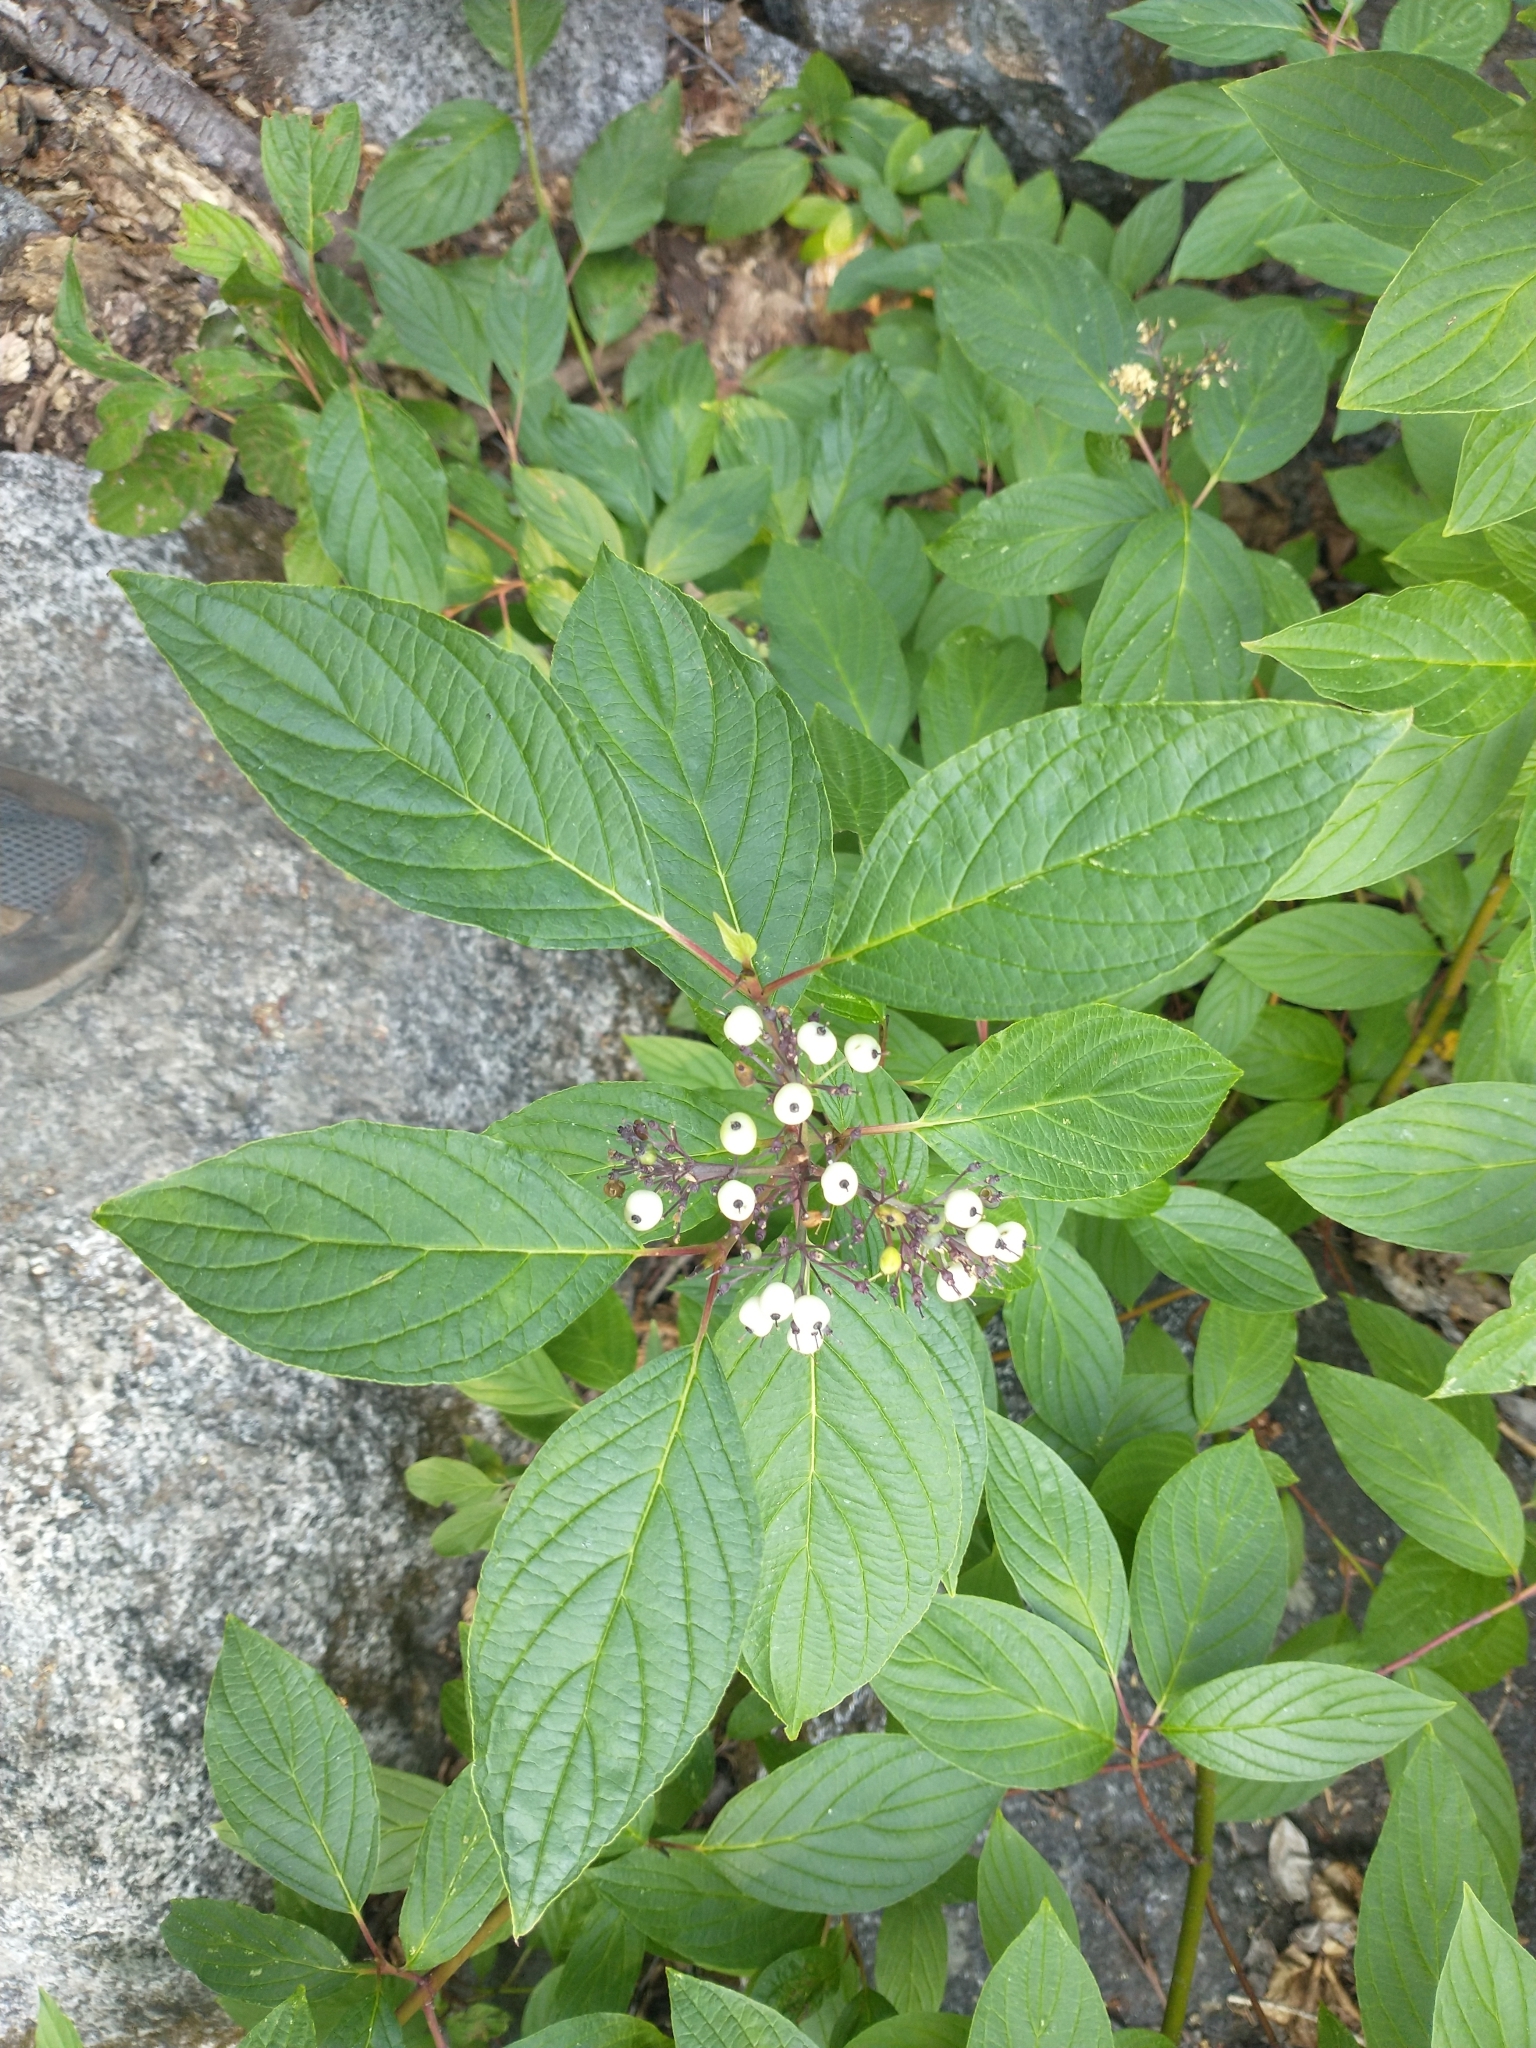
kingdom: Plantae
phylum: Tracheophyta
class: Magnoliopsida
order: Cornales
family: Cornaceae
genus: Cornus
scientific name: Cornus sericea
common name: Red-osier dogwood
